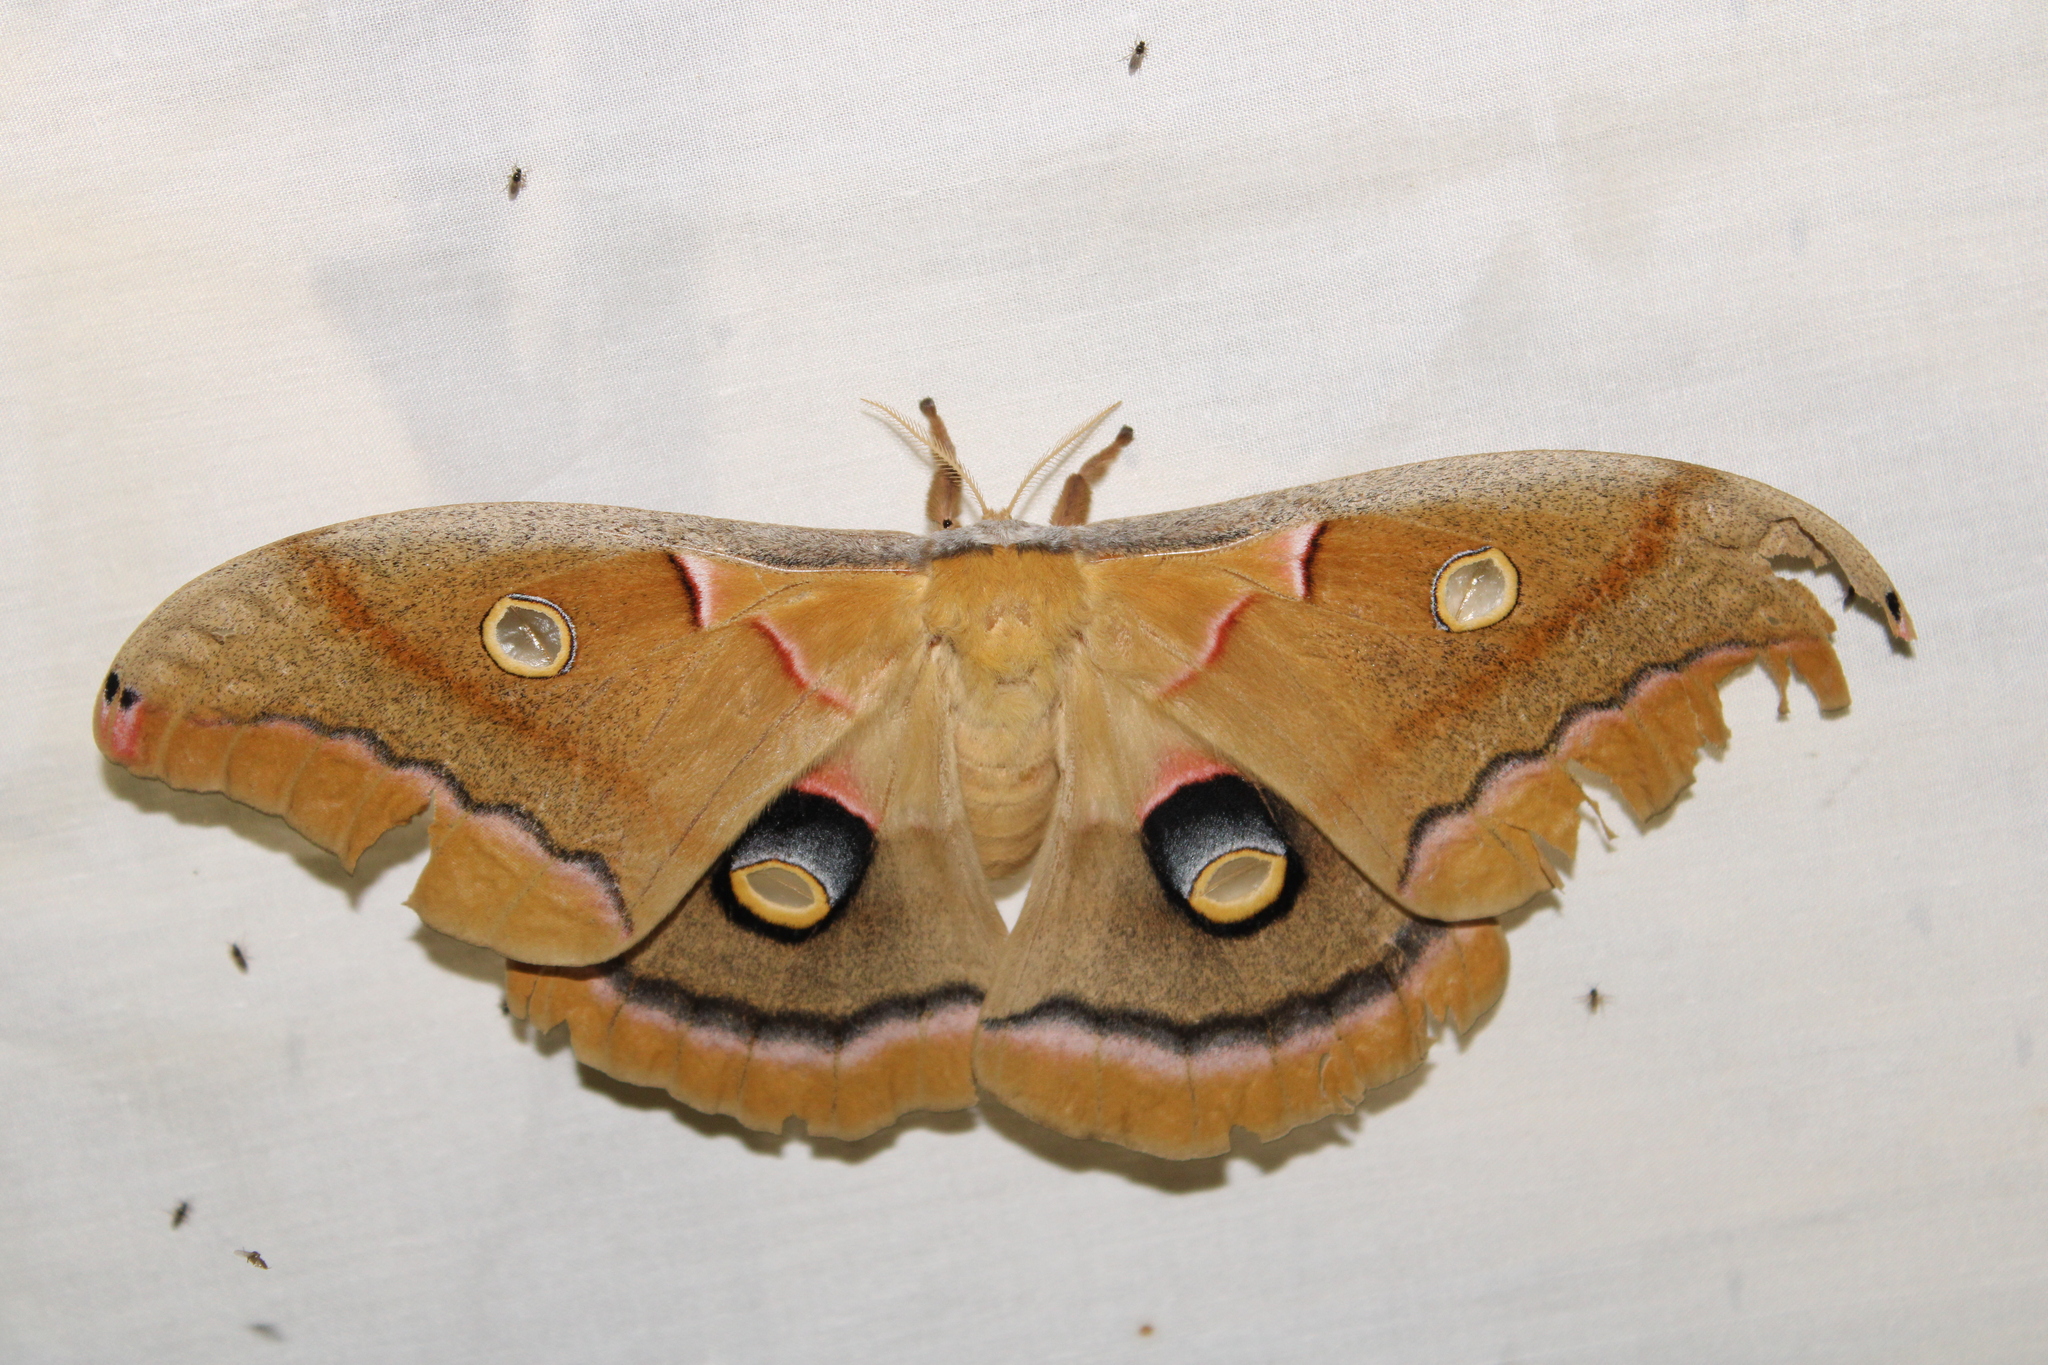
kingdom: Animalia
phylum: Arthropoda
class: Insecta
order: Lepidoptera
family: Saturniidae
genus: Antheraea
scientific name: Antheraea polyphemus
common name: Polyphemus moth
